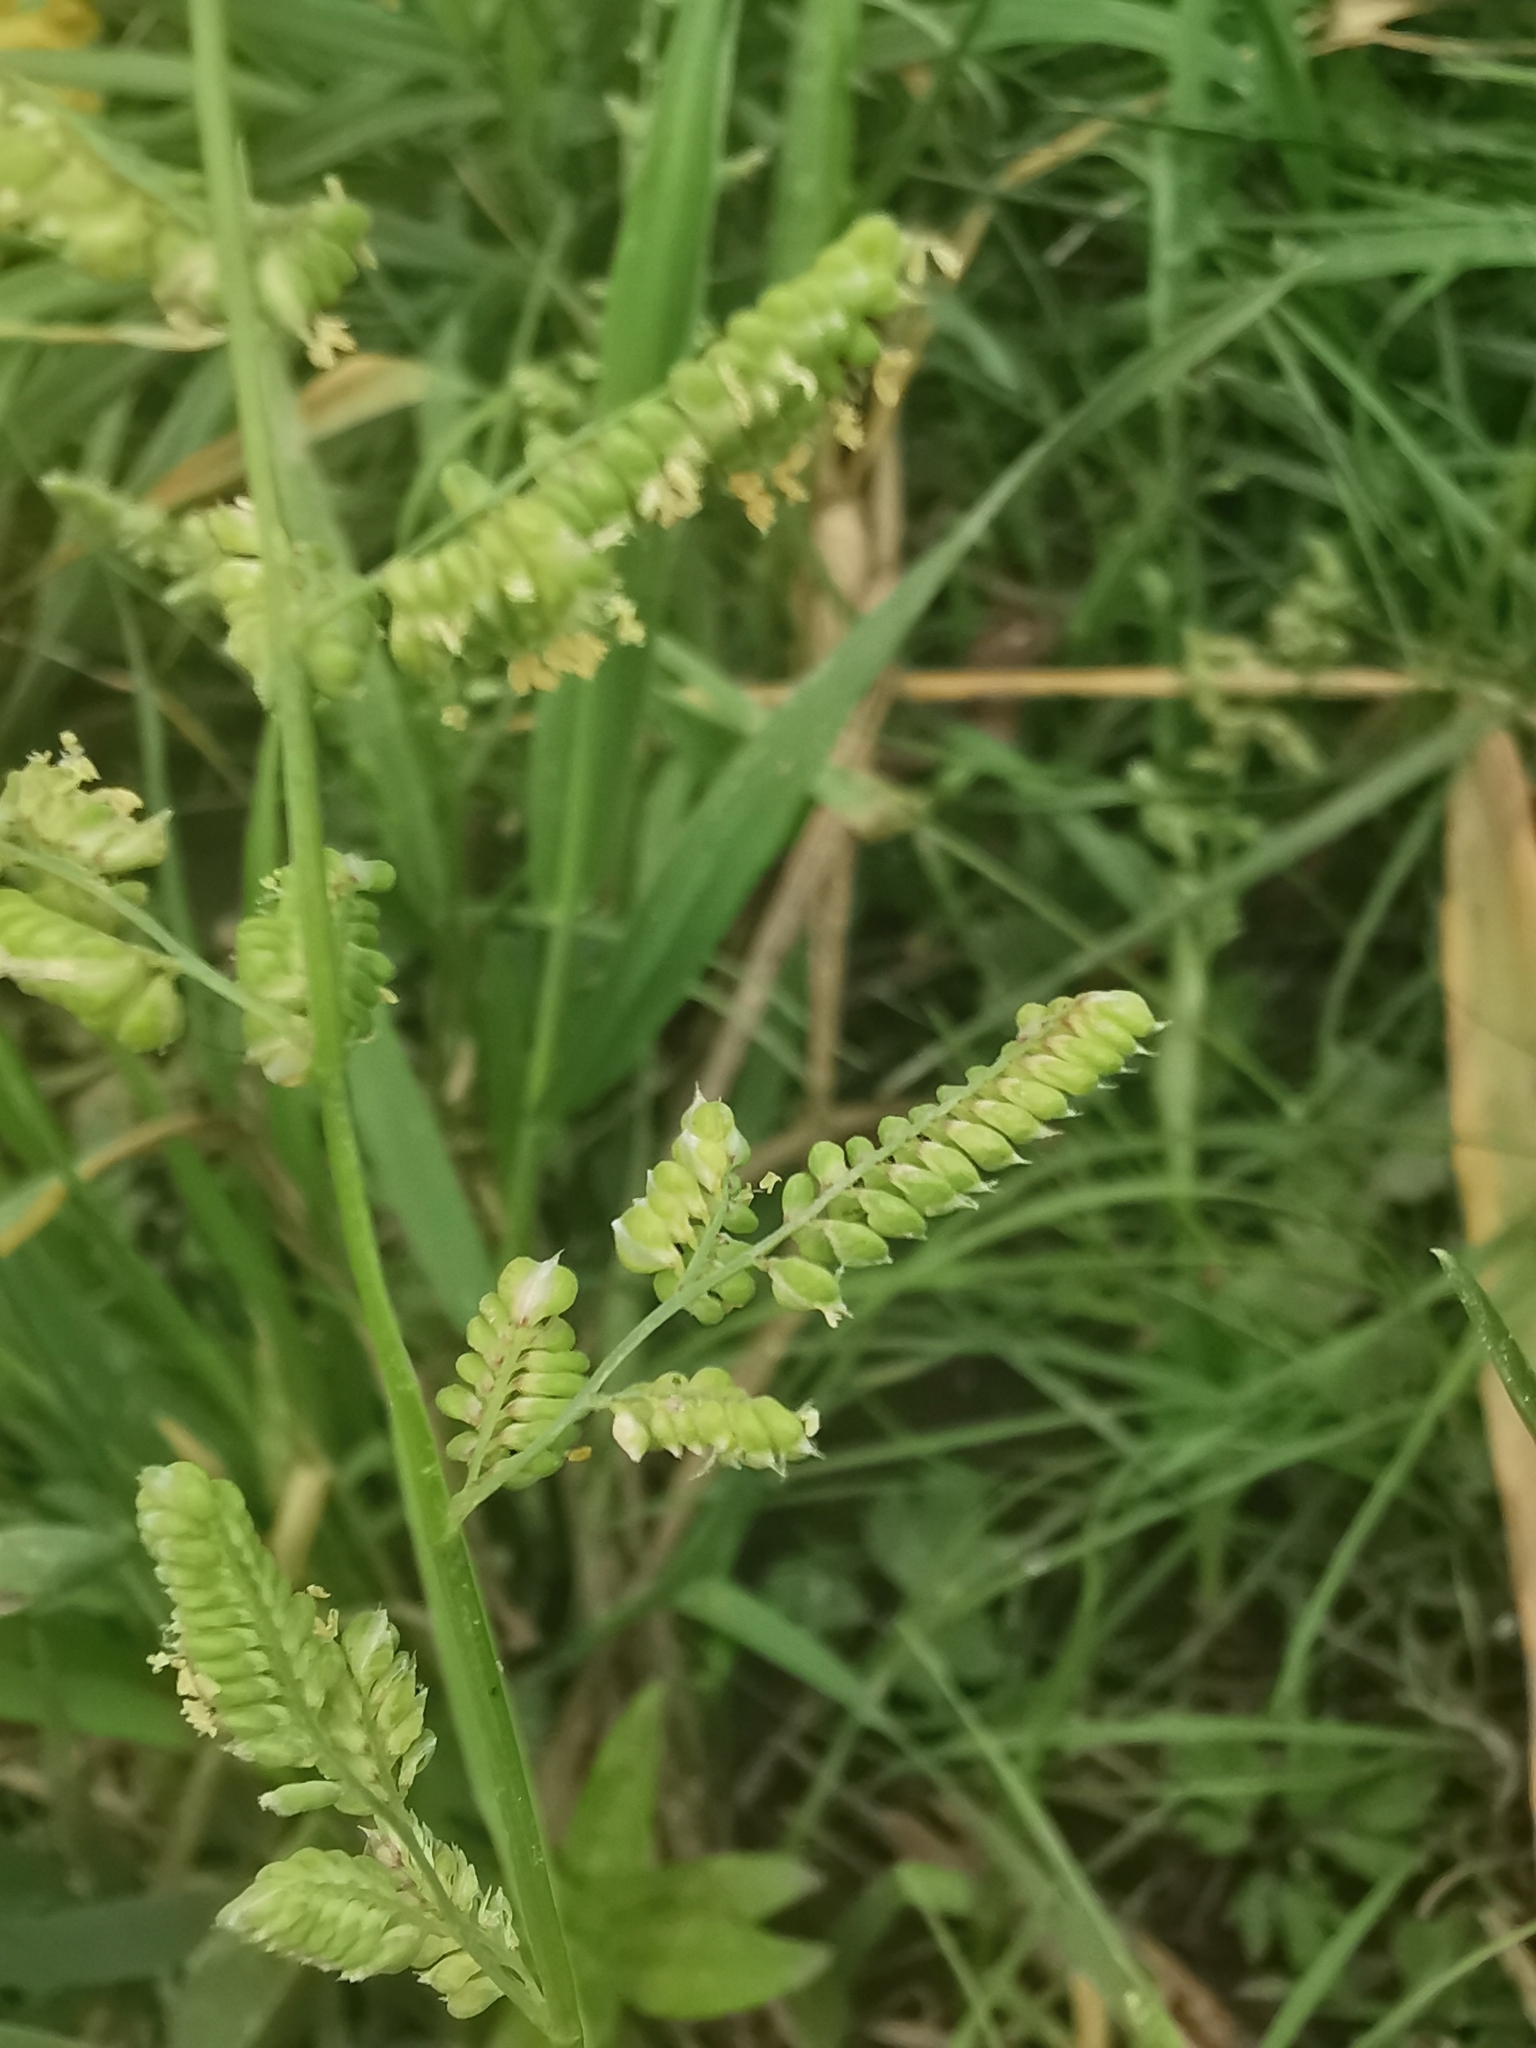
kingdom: Plantae
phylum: Tracheophyta
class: Liliopsida
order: Poales
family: Poaceae
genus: Beckmannia
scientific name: Beckmannia syzigachne
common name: American slough-grass
